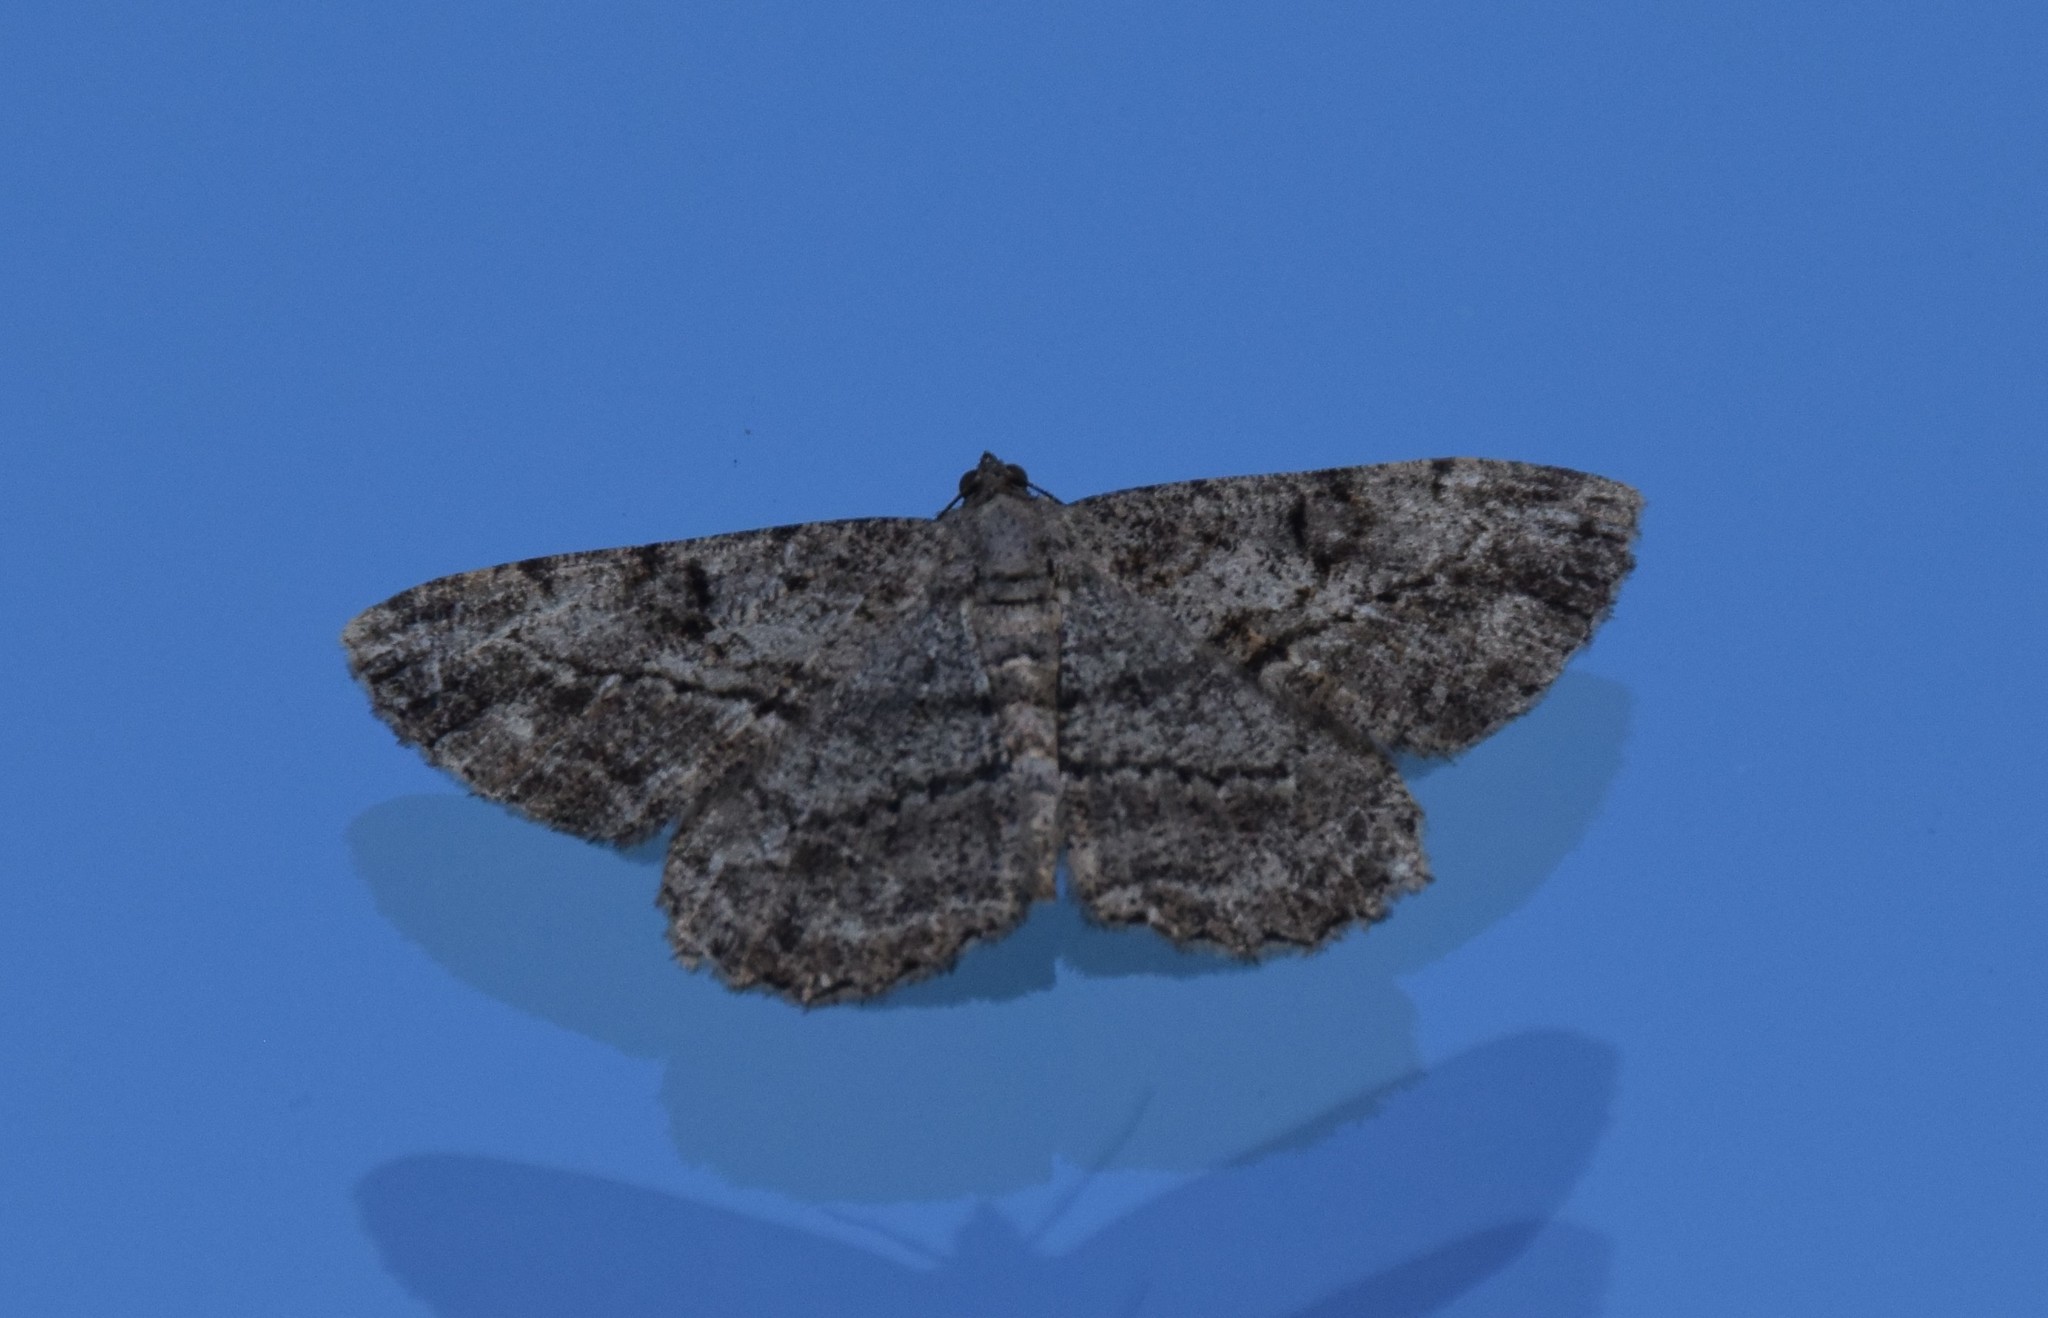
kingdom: Animalia
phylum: Arthropoda
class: Insecta
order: Lepidoptera
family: Geometridae
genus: Peribatodes
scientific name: Peribatodes rhomboidaria
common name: Willow beauty
